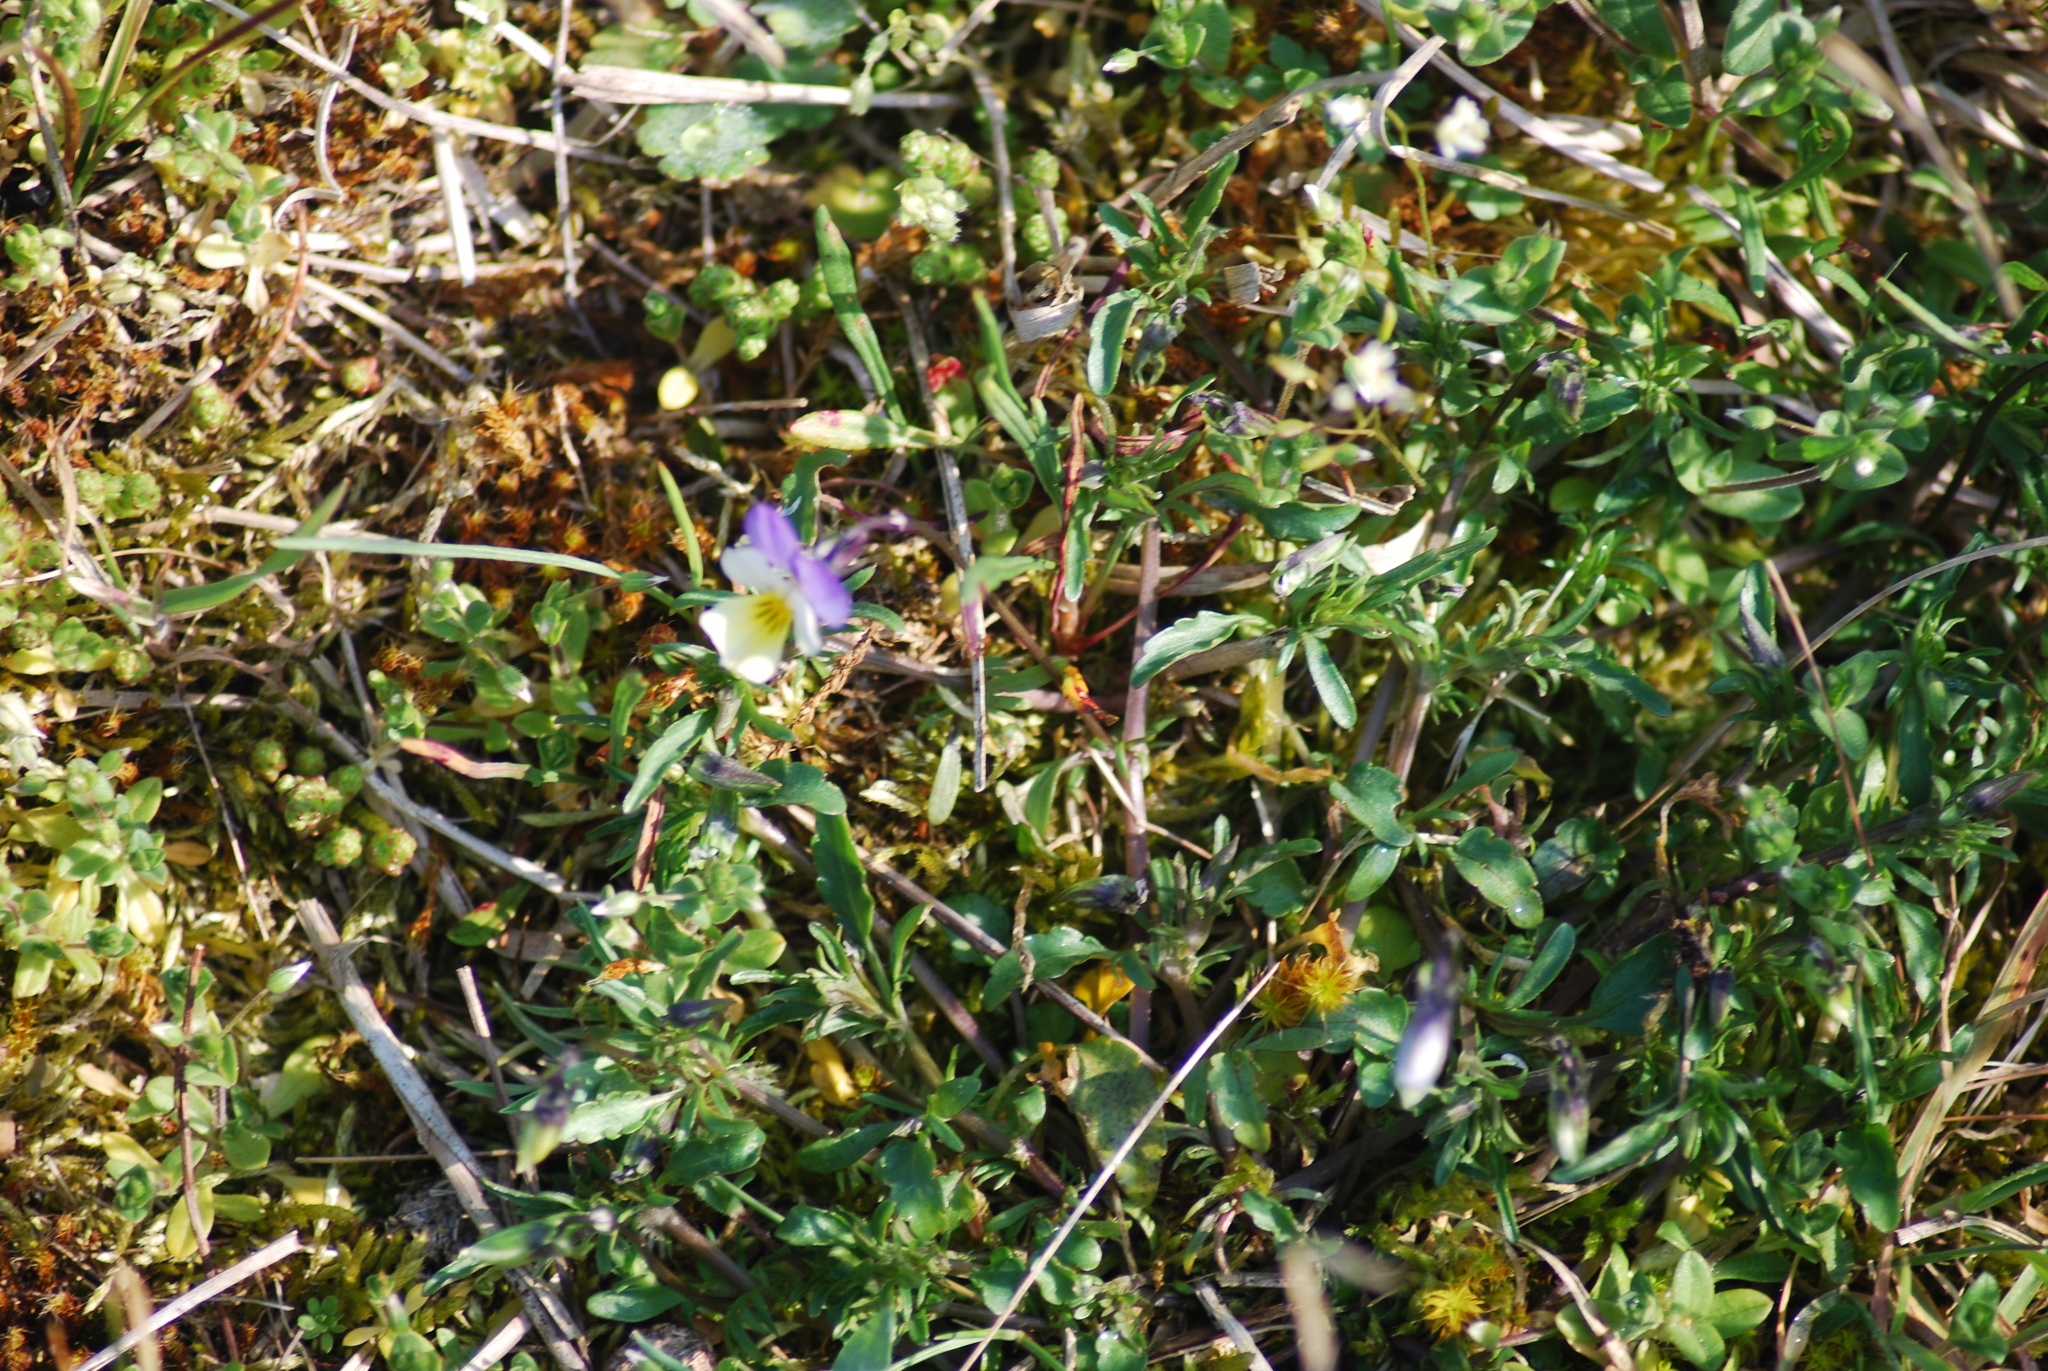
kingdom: Plantae
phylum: Tracheophyta
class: Magnoliopsida
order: Malpighiales
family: Violaceae
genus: Viola
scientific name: Viola tricolor
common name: Pansy
